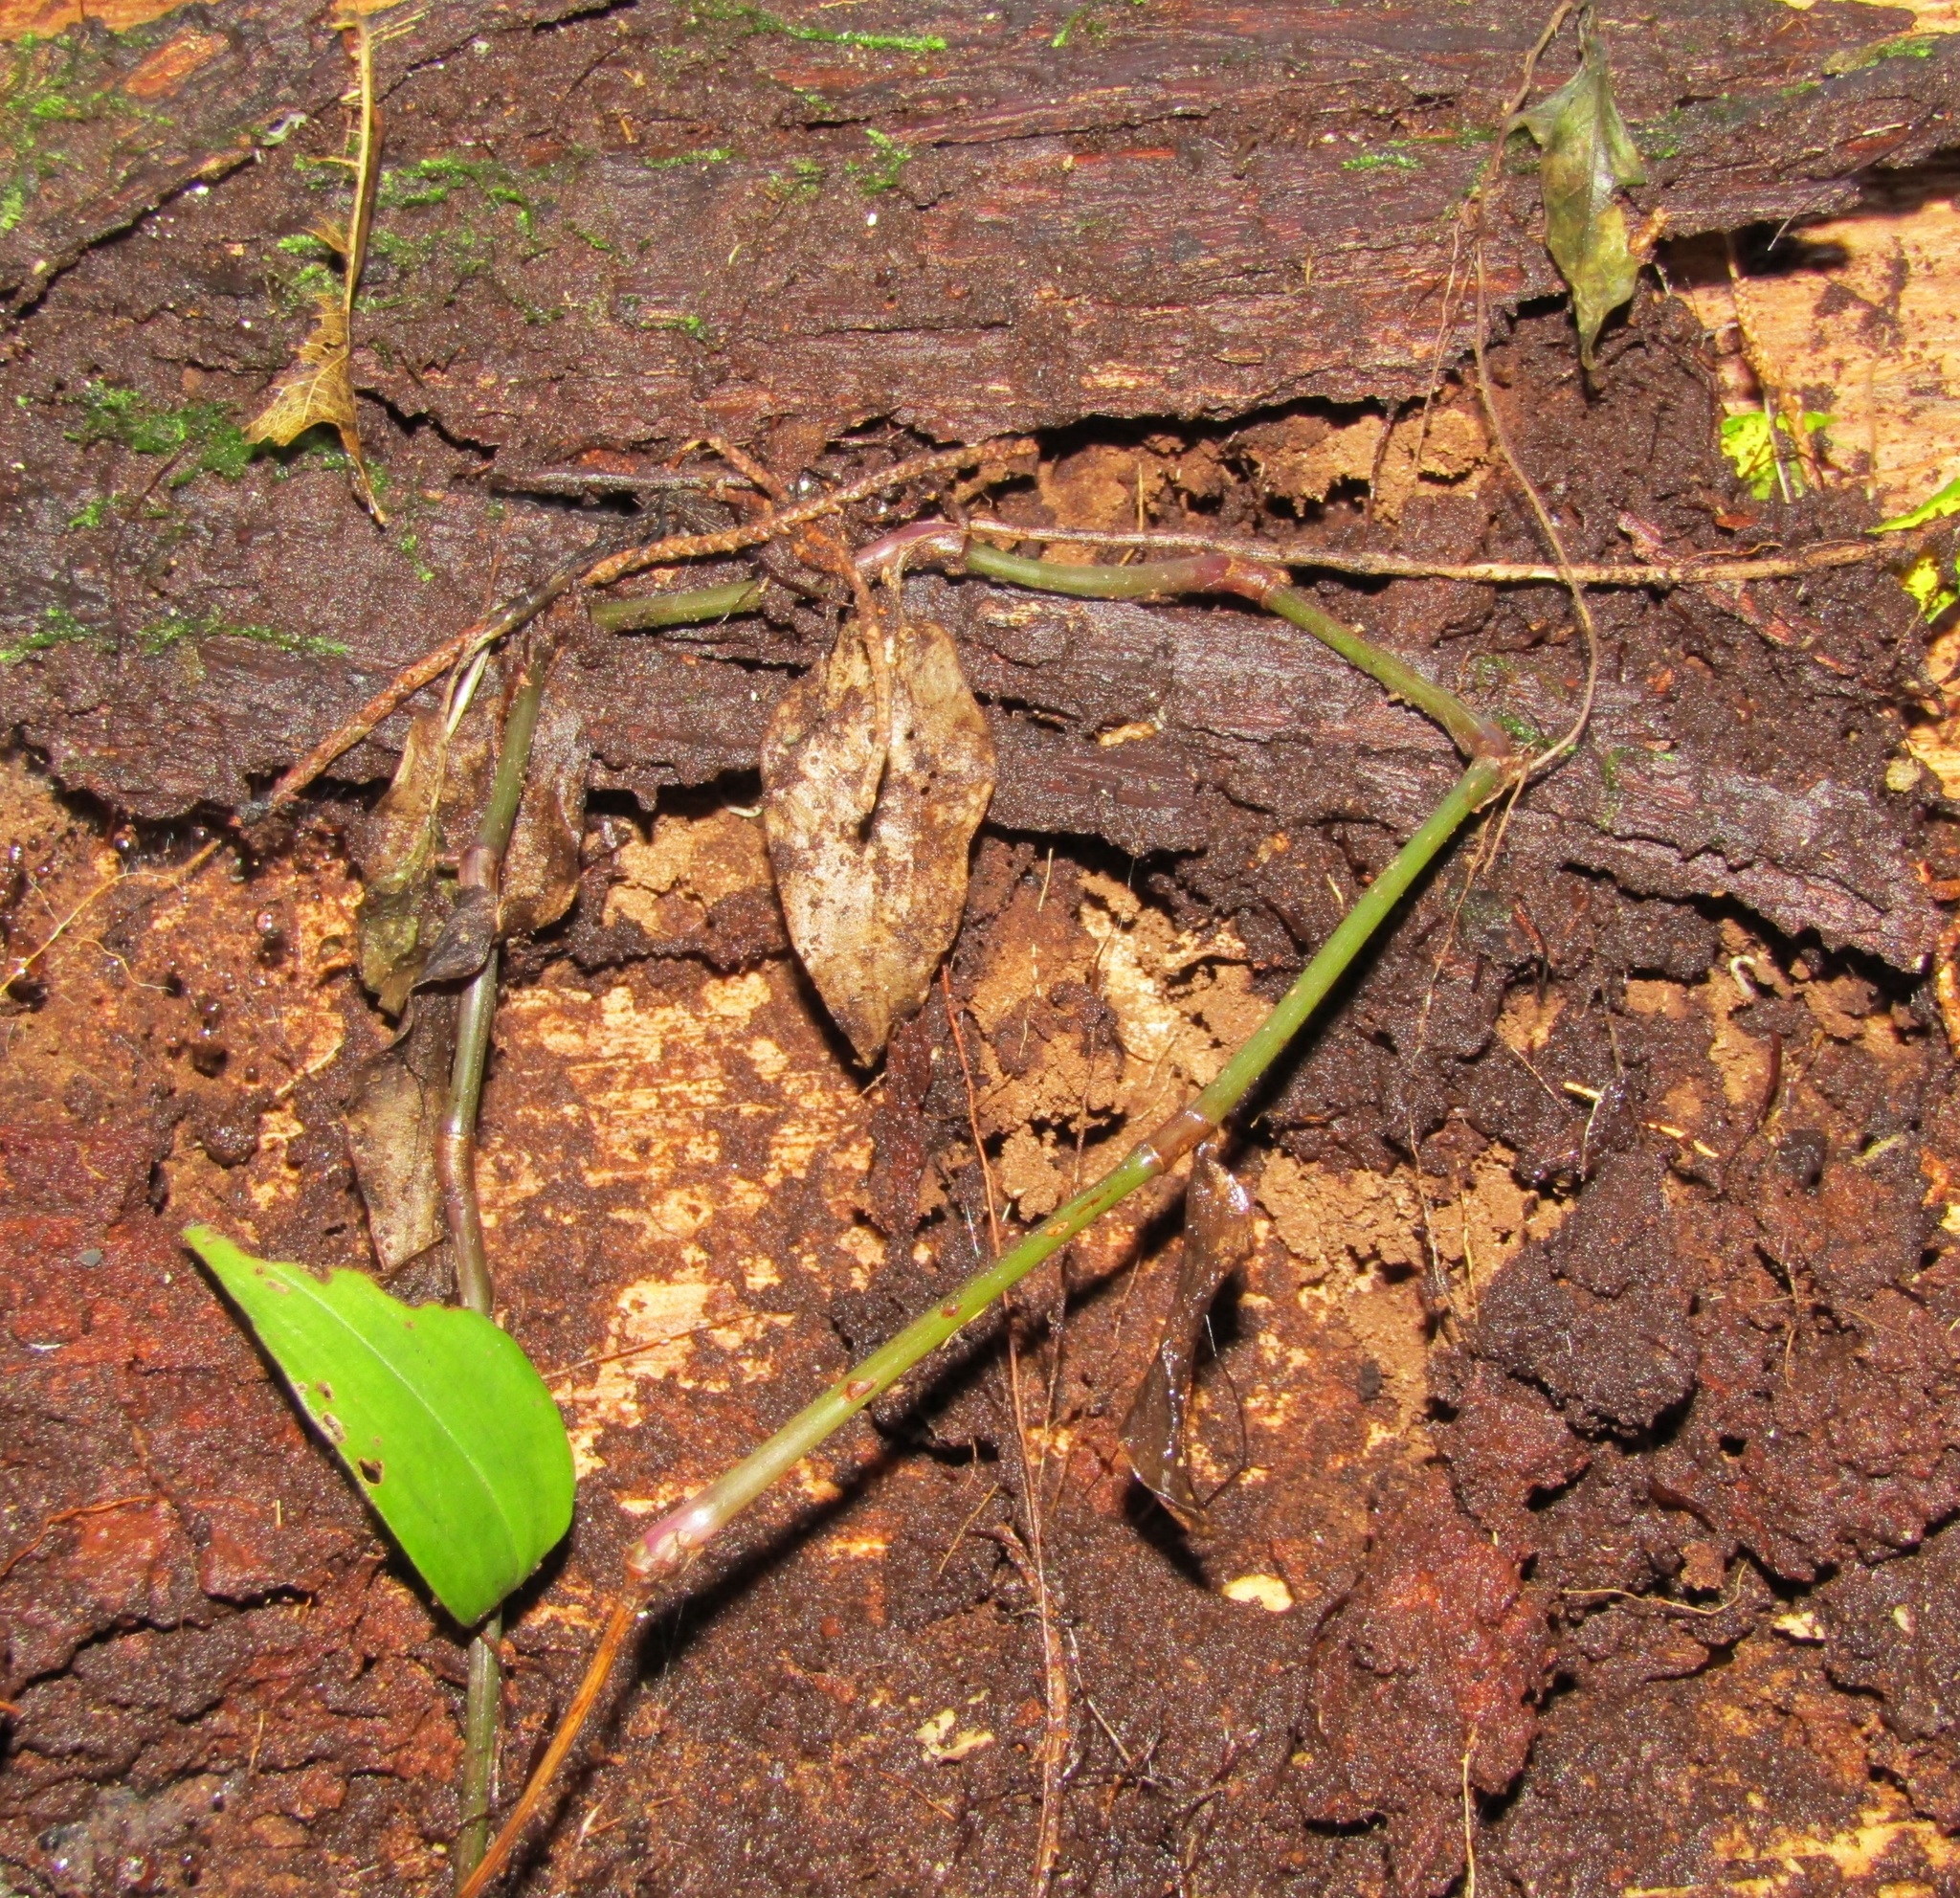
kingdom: Plantae
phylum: Tracheophyta
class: Liliopsida
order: Commelinales
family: Commelinaceae
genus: Tradescantia
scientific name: Tradescantia fluminensis
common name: Wandering-jew
